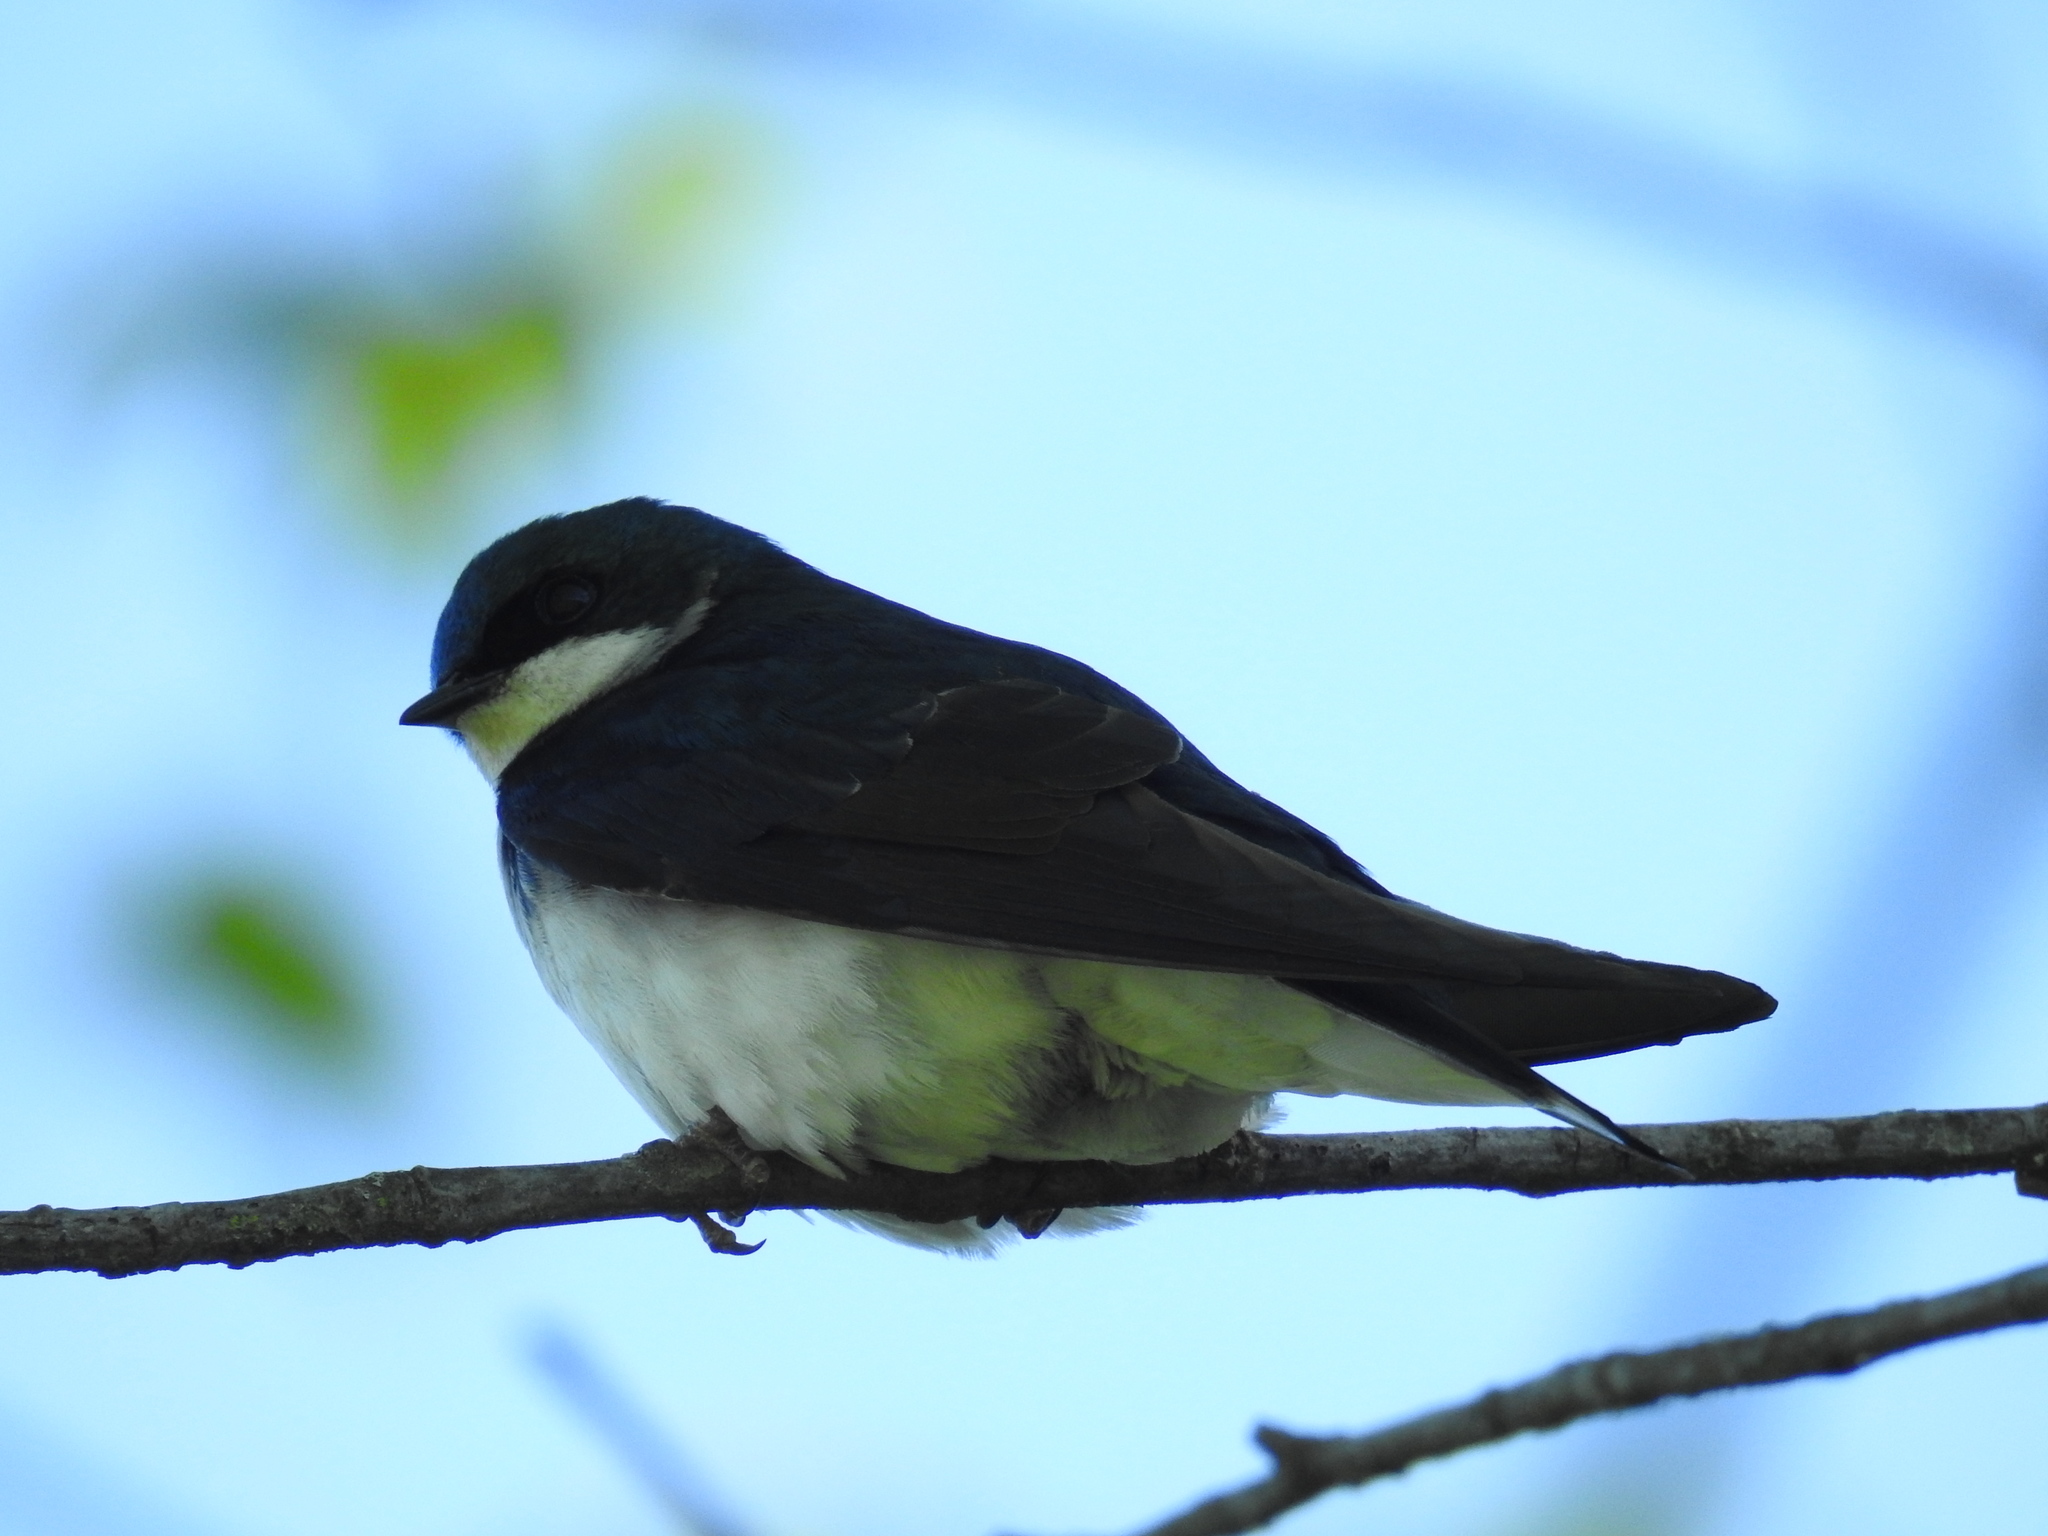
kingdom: Animalia
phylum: Chordata
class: Aves
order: Passeriformes
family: Hirundinidae
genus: Tachycineta
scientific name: Tachycineta bicolor
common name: Tree swallow
